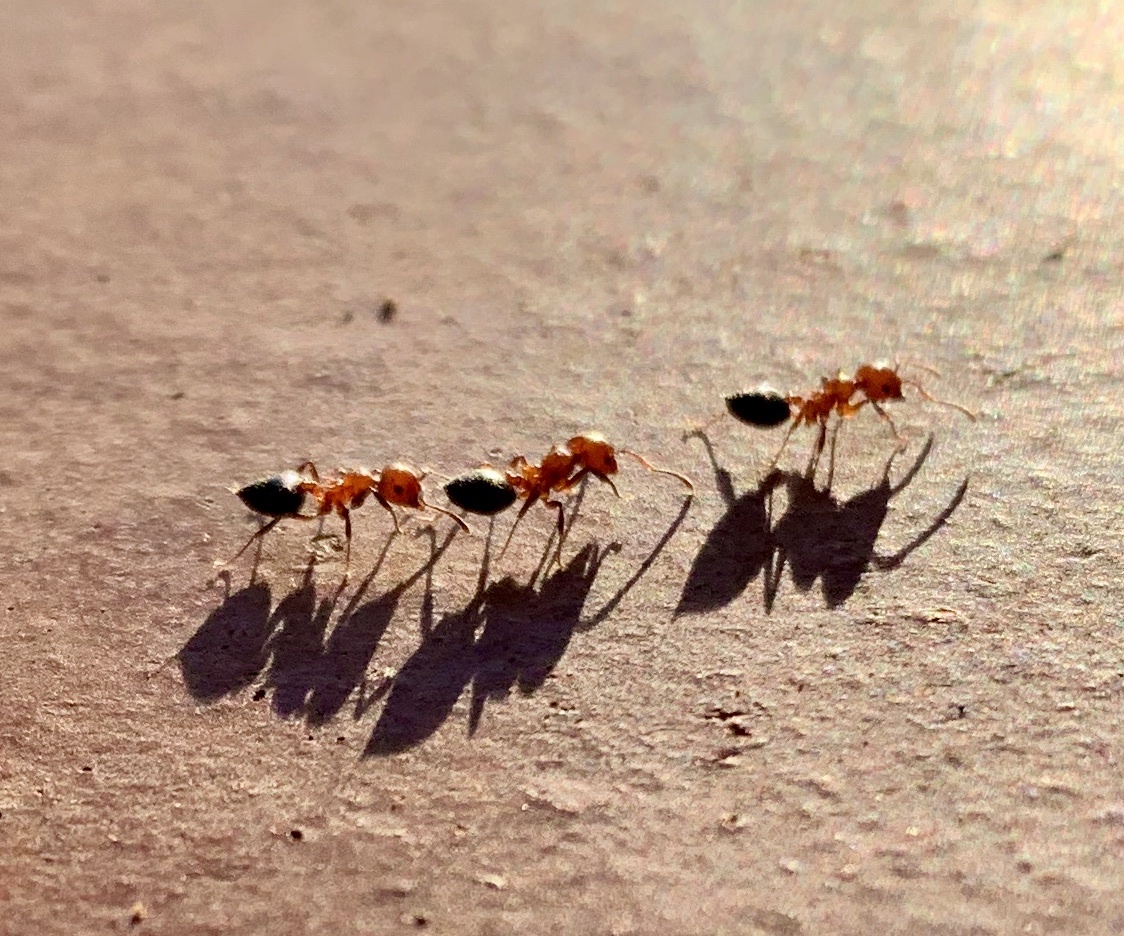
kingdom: Animalia
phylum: Arthropoda
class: Insecta
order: Hymenoptera
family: Formicidae
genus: Crematogaster
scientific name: Crematogaster laeviuscula
